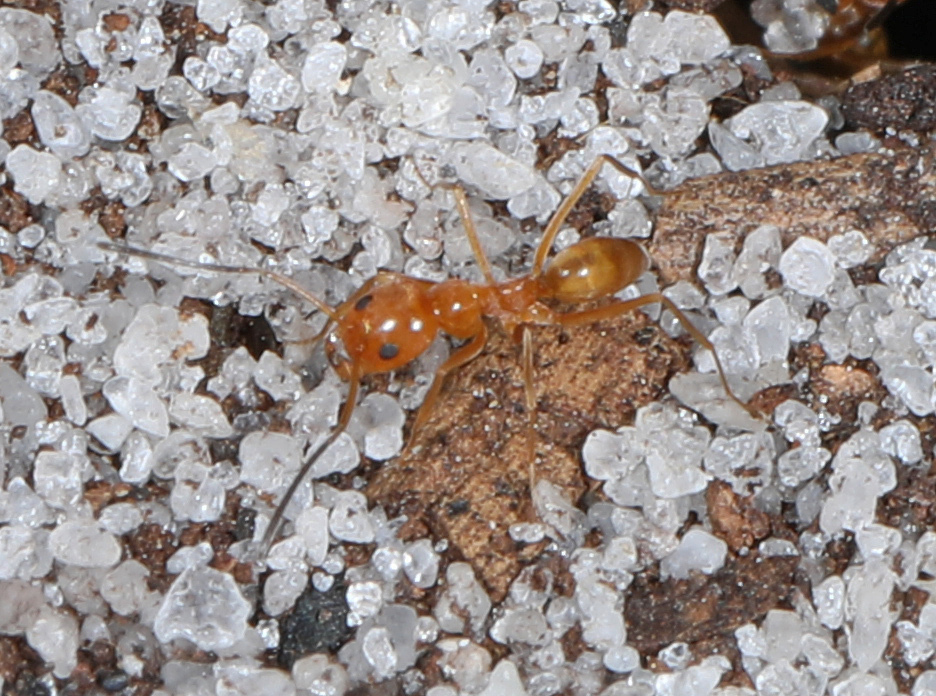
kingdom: Animalia
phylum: Arthropoda
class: Insecta
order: Hymenoptera
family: Formicidae
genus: Dorymyrmex
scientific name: Dorymyrmex bureni
